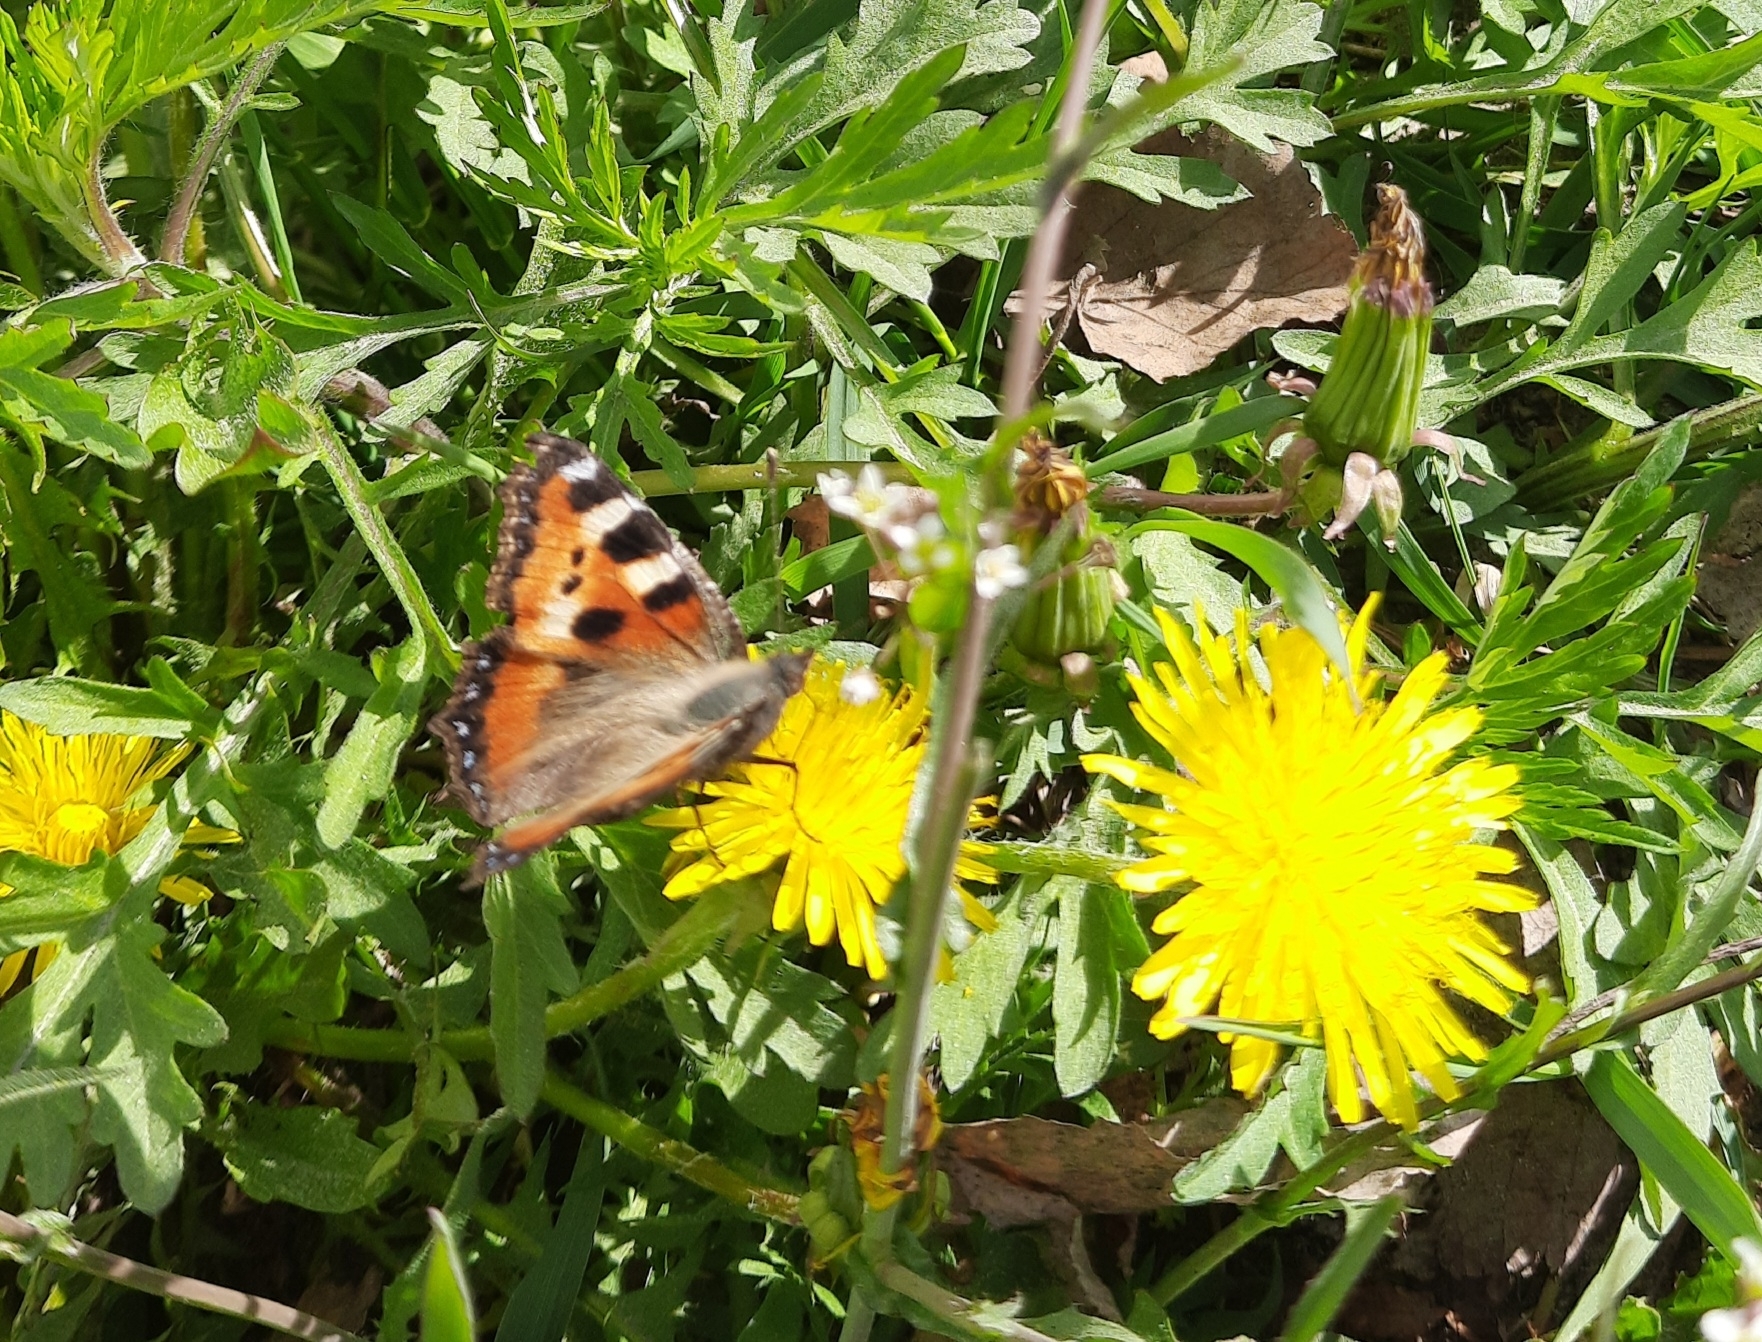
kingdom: Animalia
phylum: Arthropoda
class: Insecta
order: Lepidoptera
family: Nymphalidae
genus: Aglais
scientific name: Aglais urticae
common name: Small tortoiseshell
